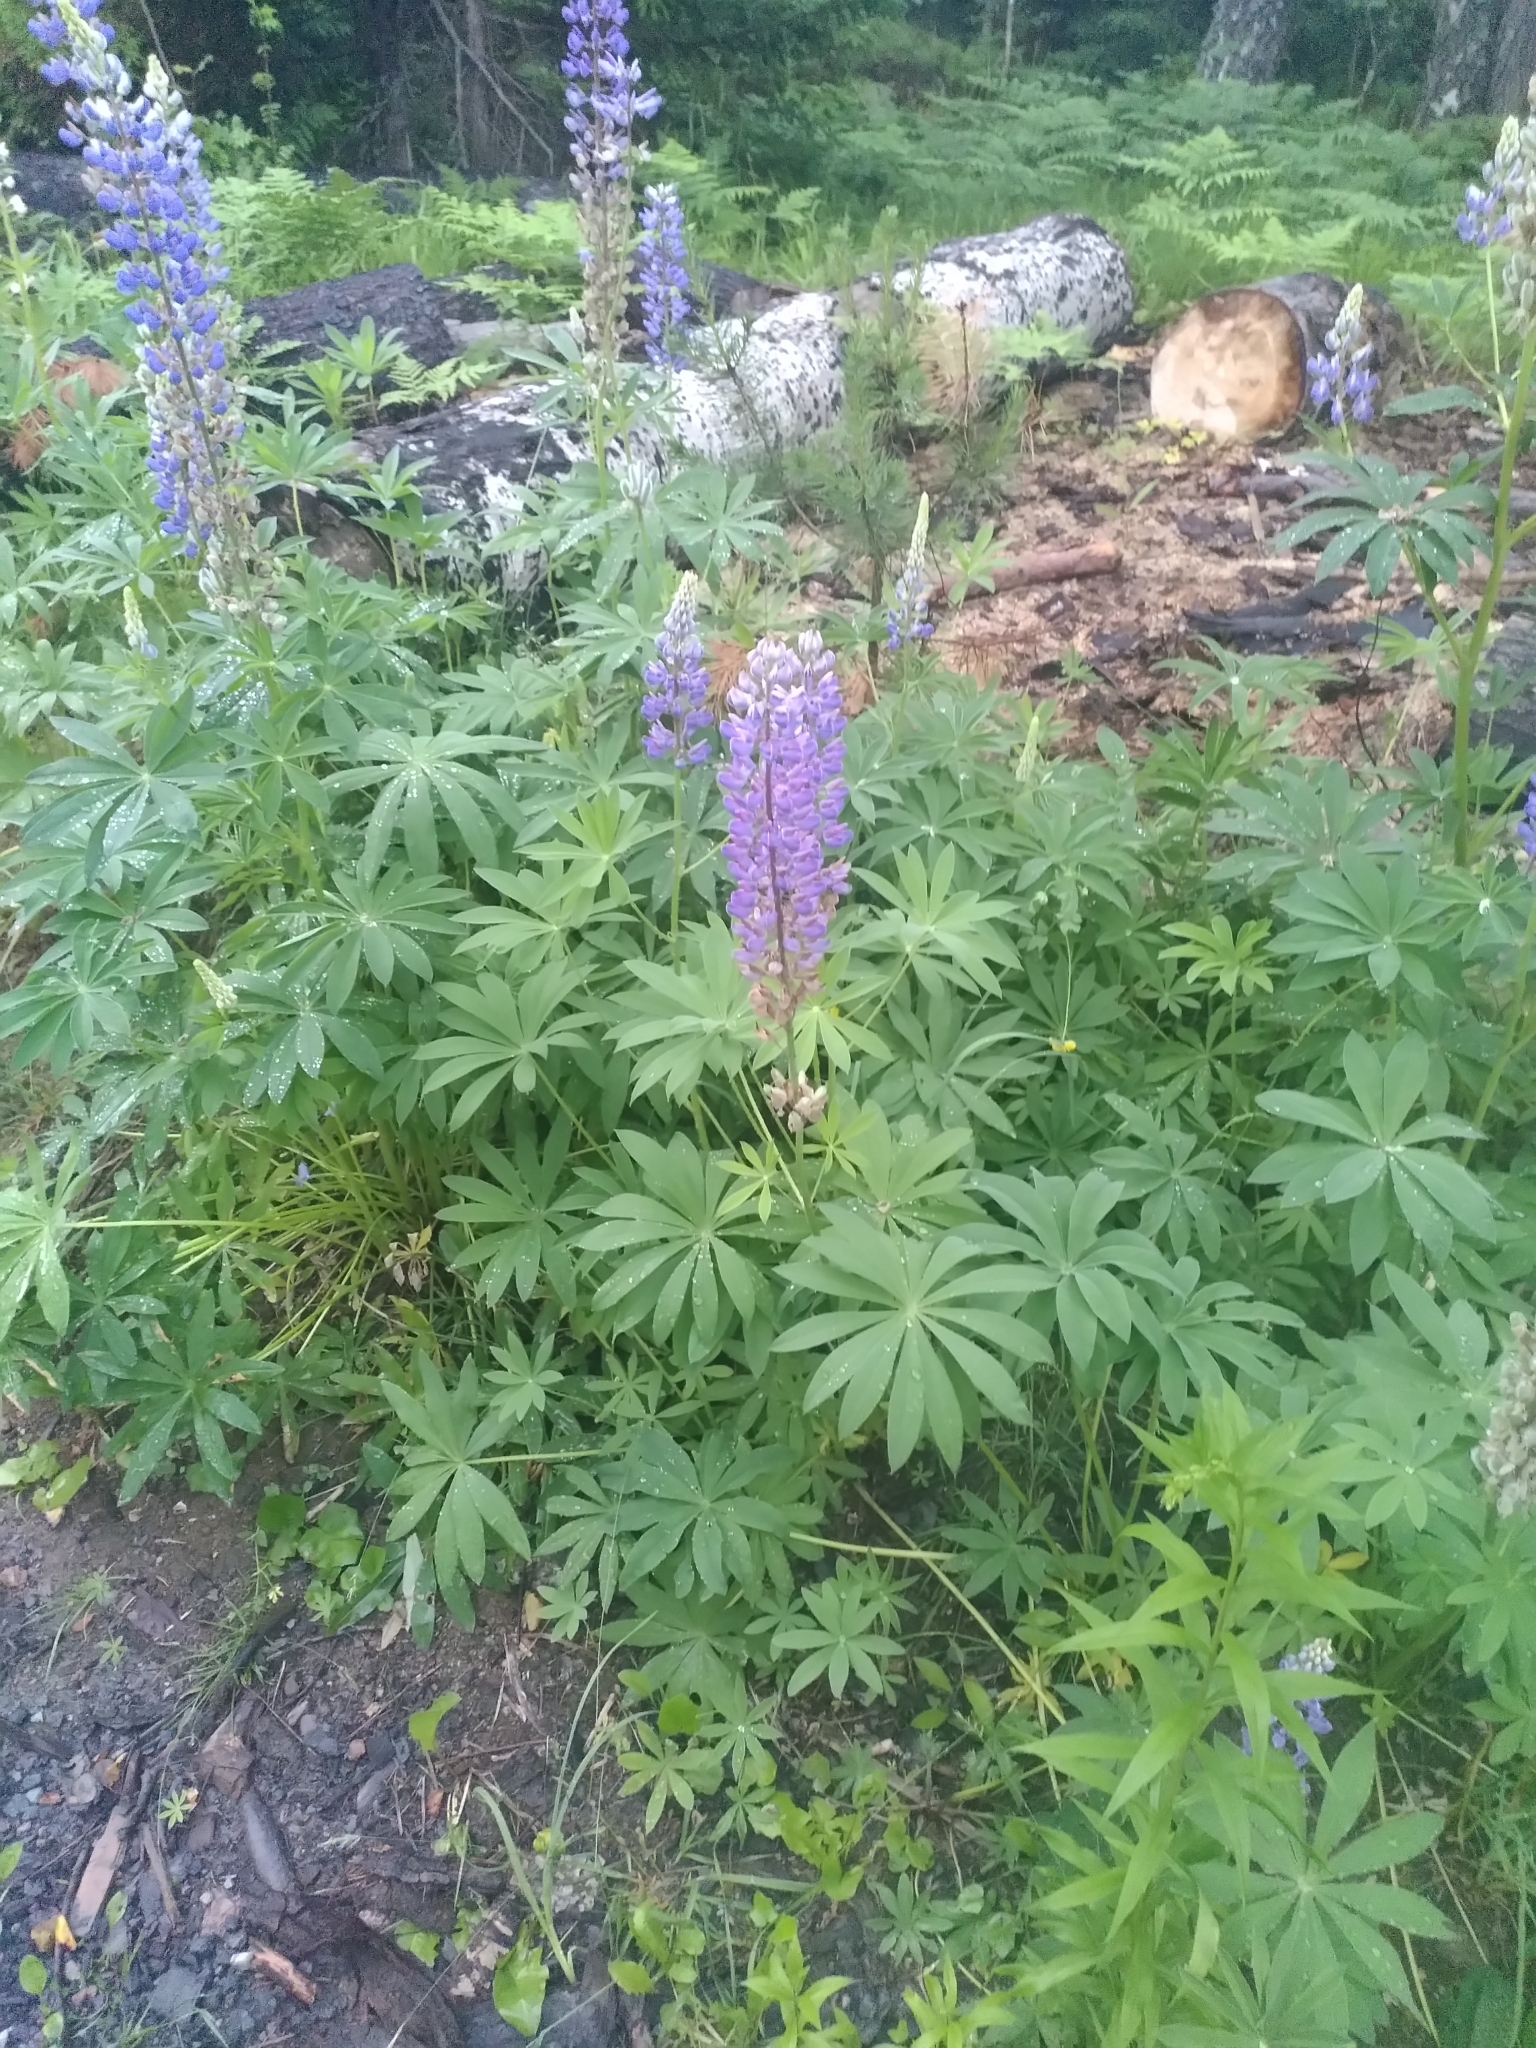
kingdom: Plantae
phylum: Tracheophyta
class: Magnoliopsida
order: Fabales
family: Fabaceae
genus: Lupinus
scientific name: Lupinus polyphyllus
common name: Garden lupin
